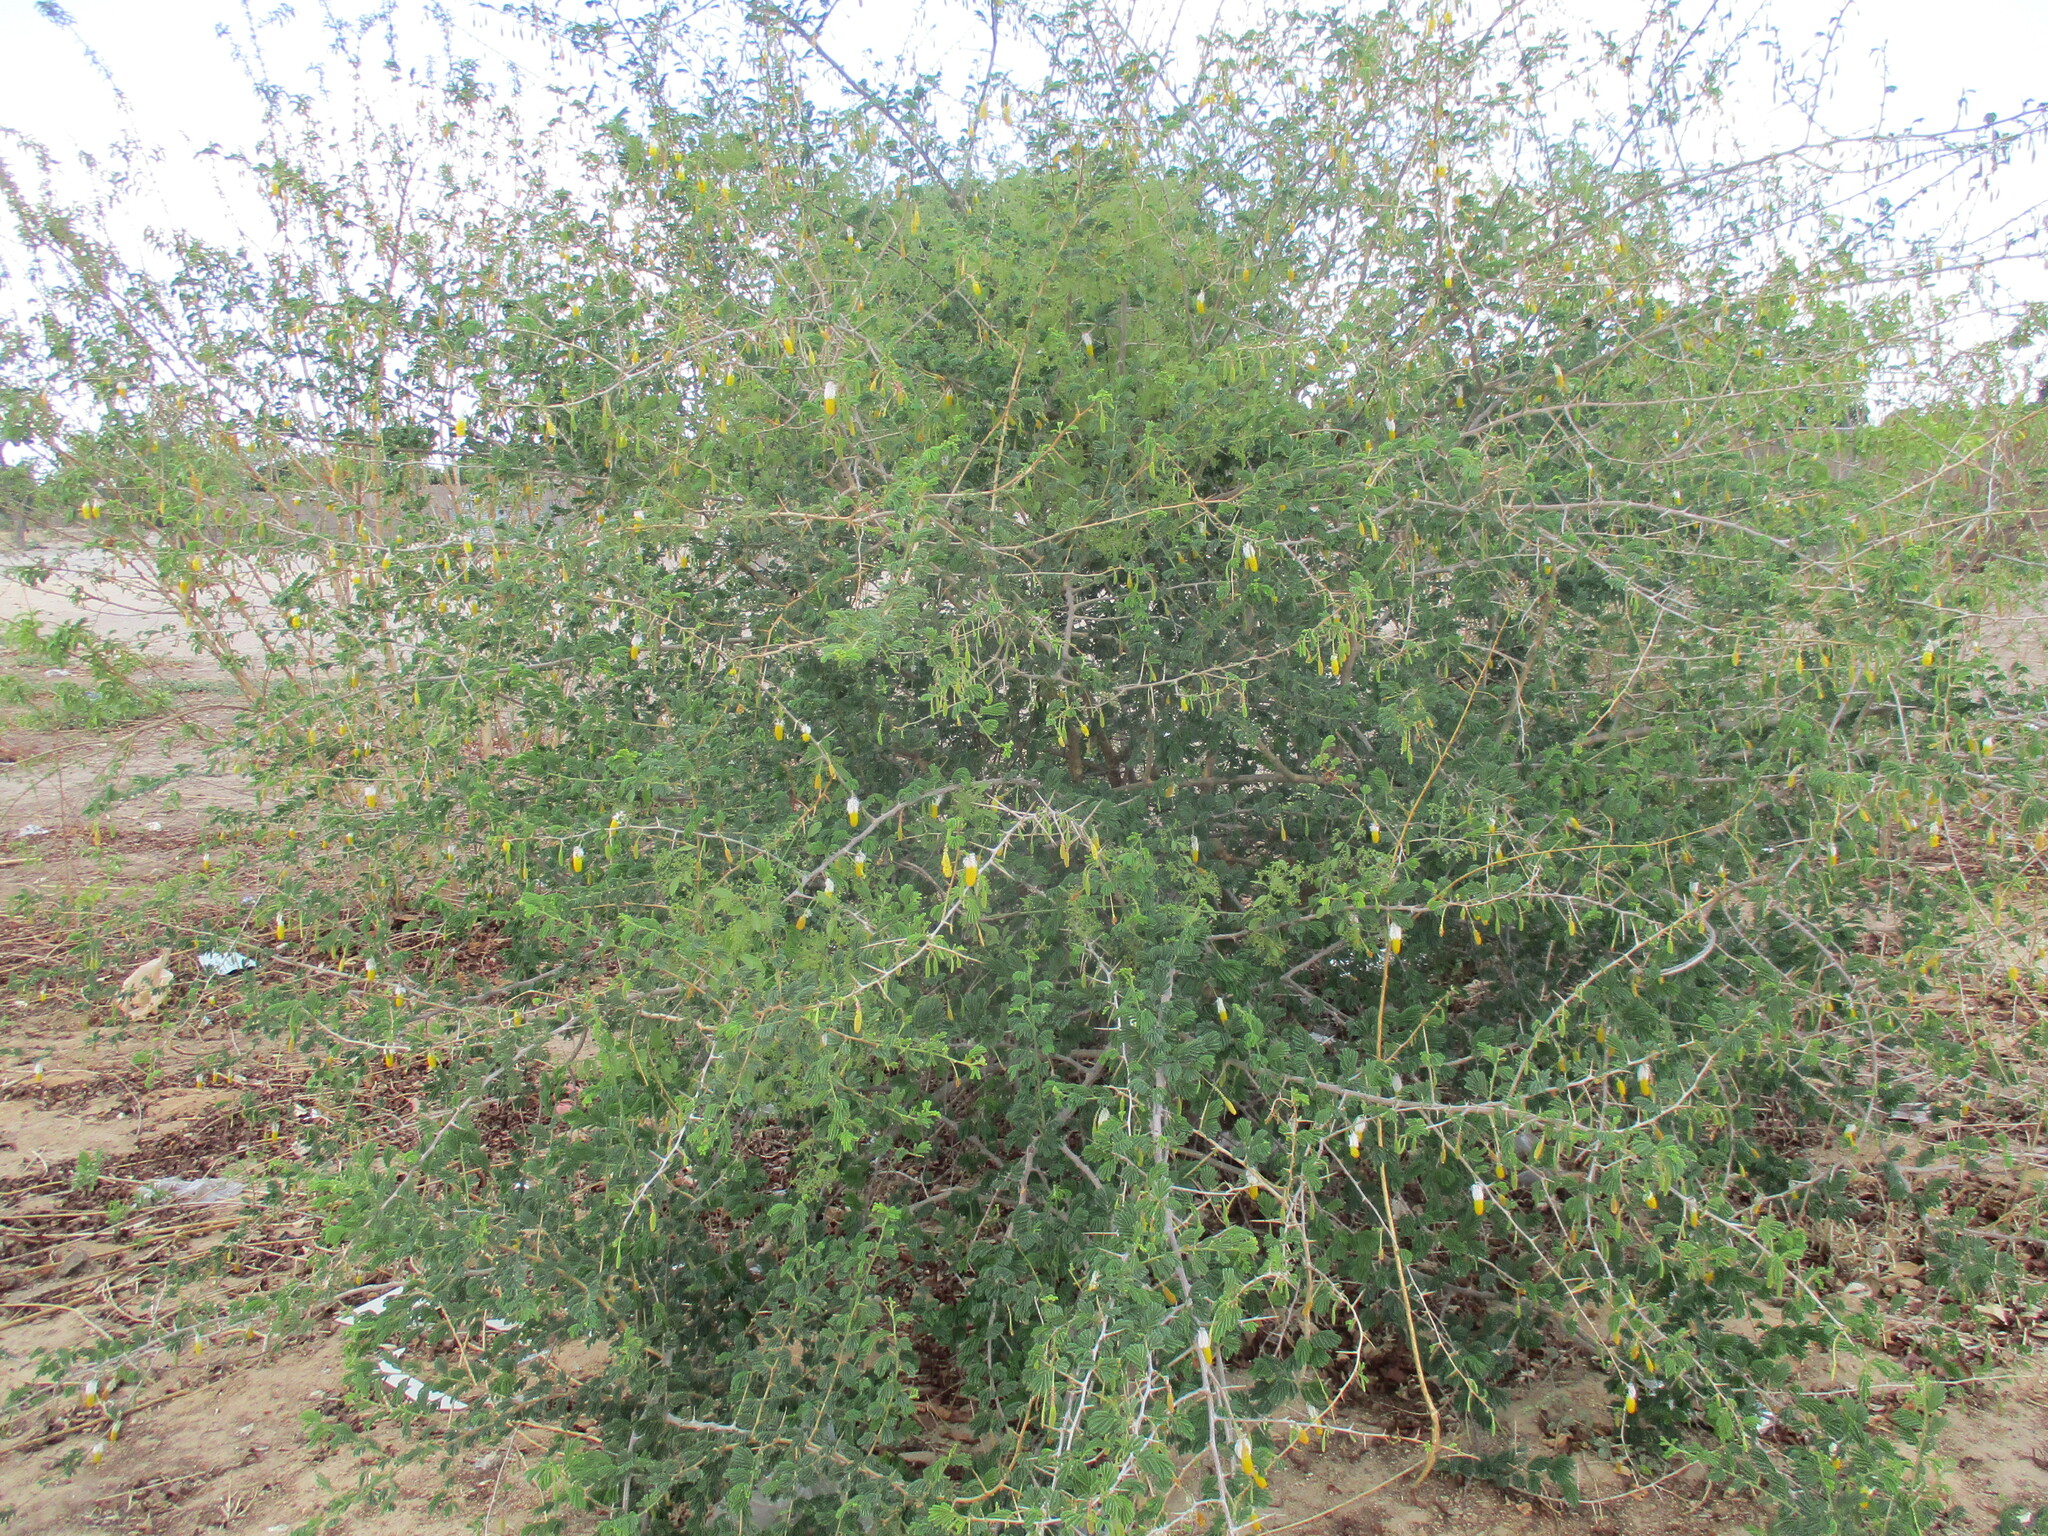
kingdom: Plantae
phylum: Tracheophyta
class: Magnoliopsida
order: Fabales
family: Fabaceae
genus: Dichrostachys
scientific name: Dichrostachys cinerea
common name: Sicklebush
